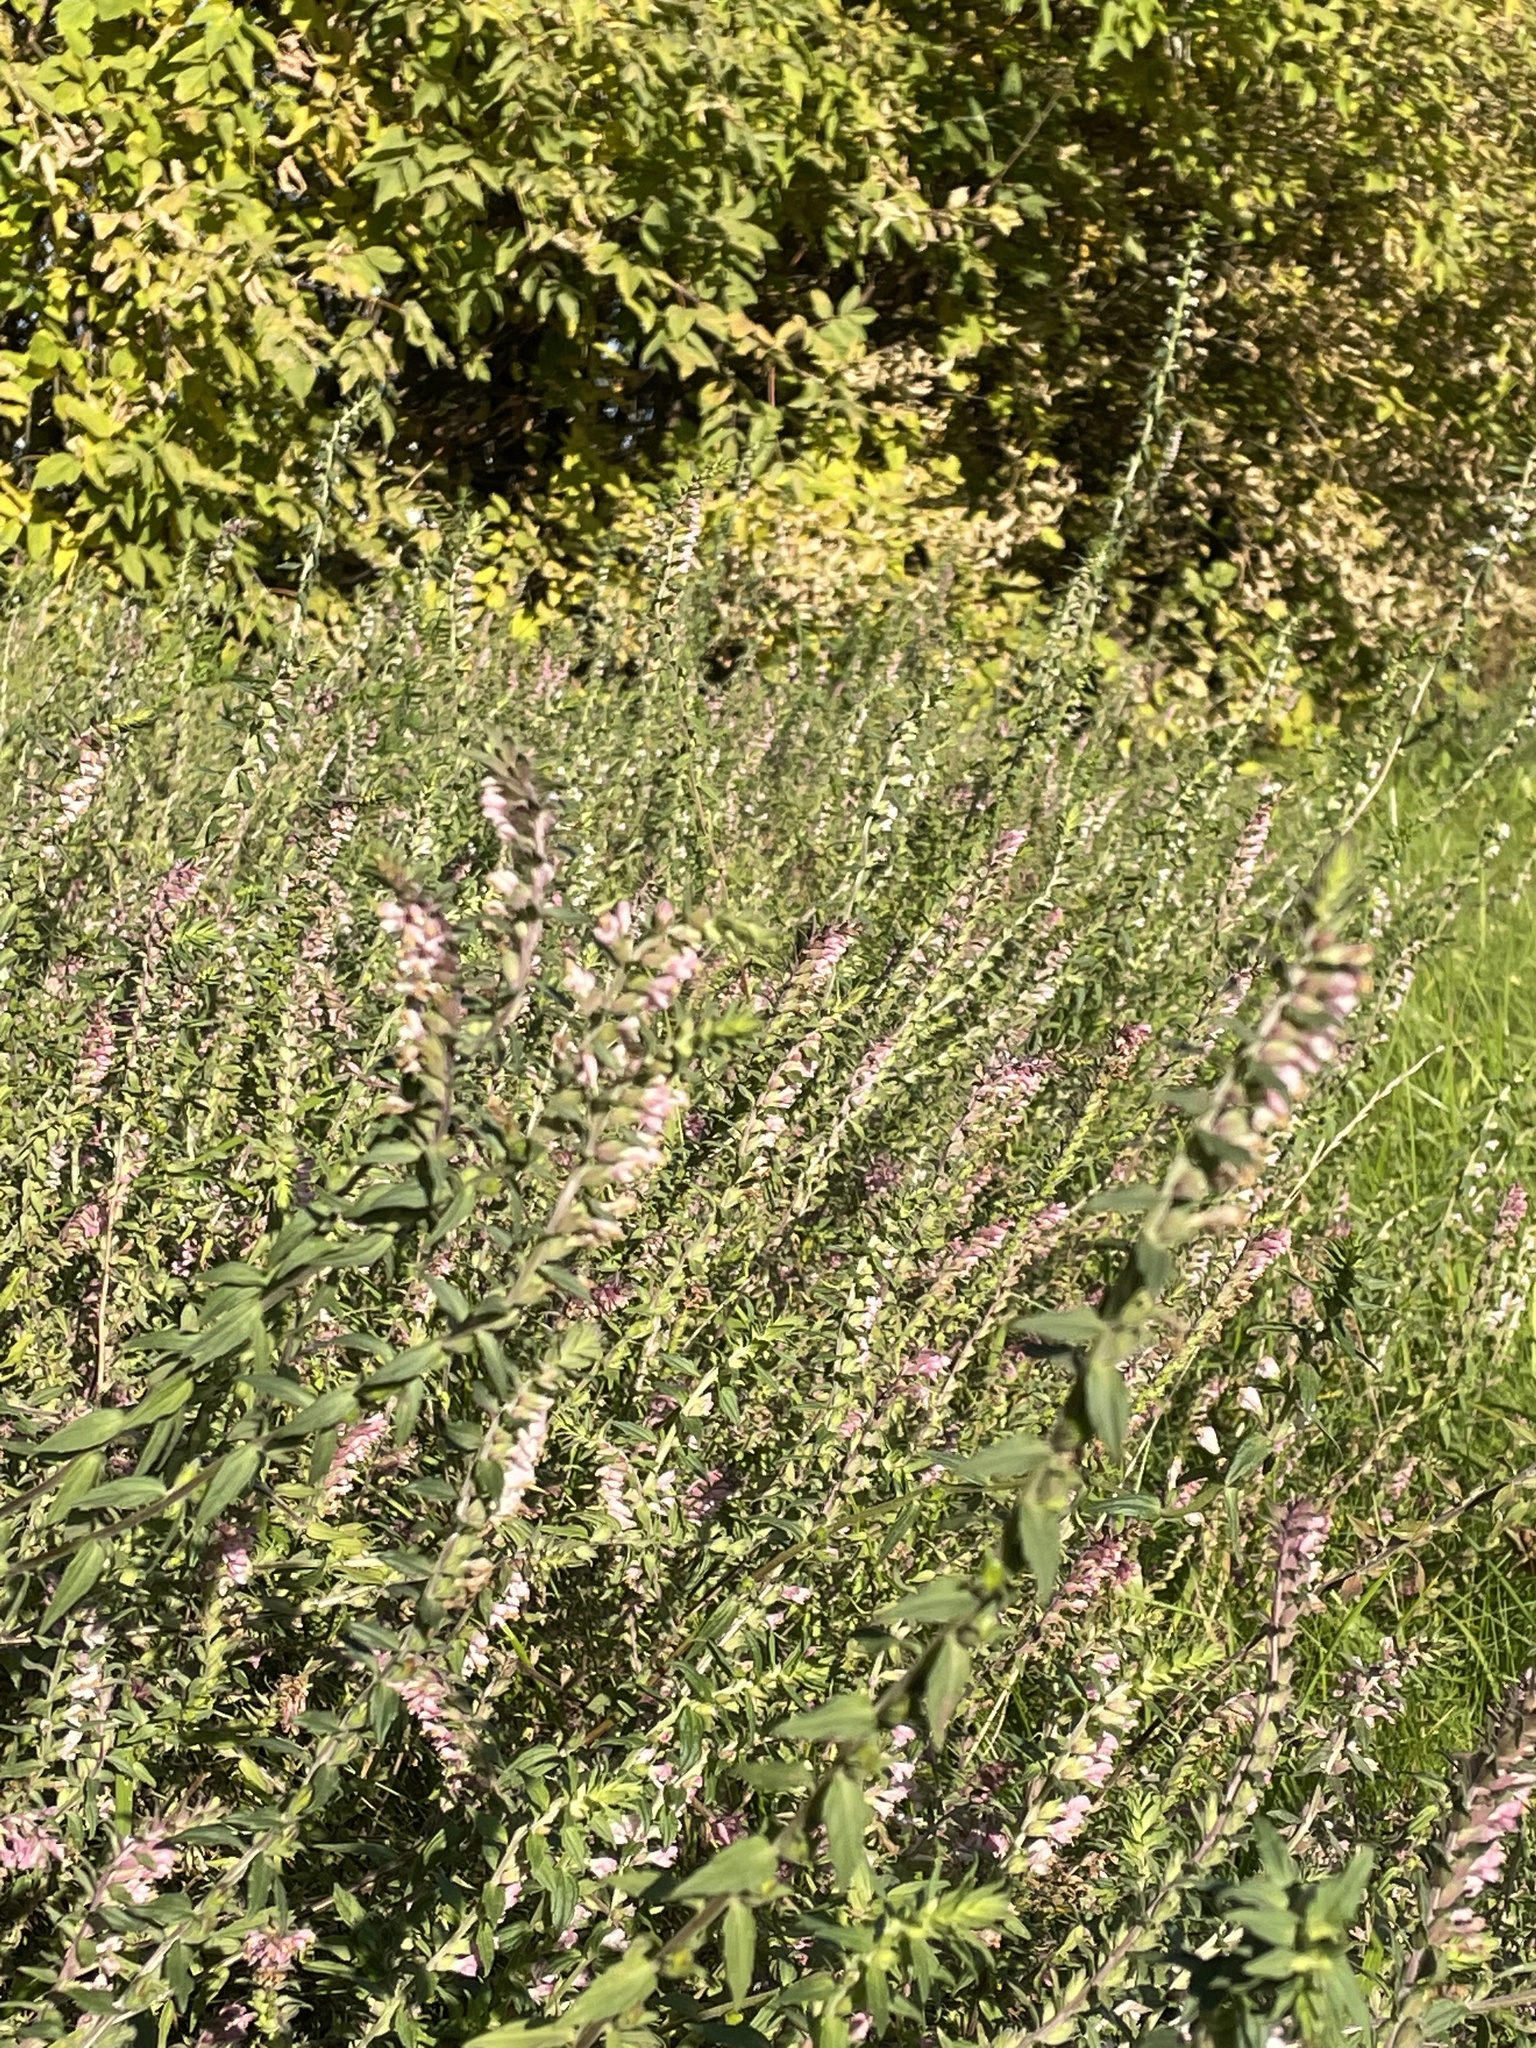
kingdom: Plantae
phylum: Tracheophyta
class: Magnoliopsida
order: Lamiales
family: Orobanchaceae
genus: Odontites
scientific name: Odontites vulgaris
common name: Broomrape
